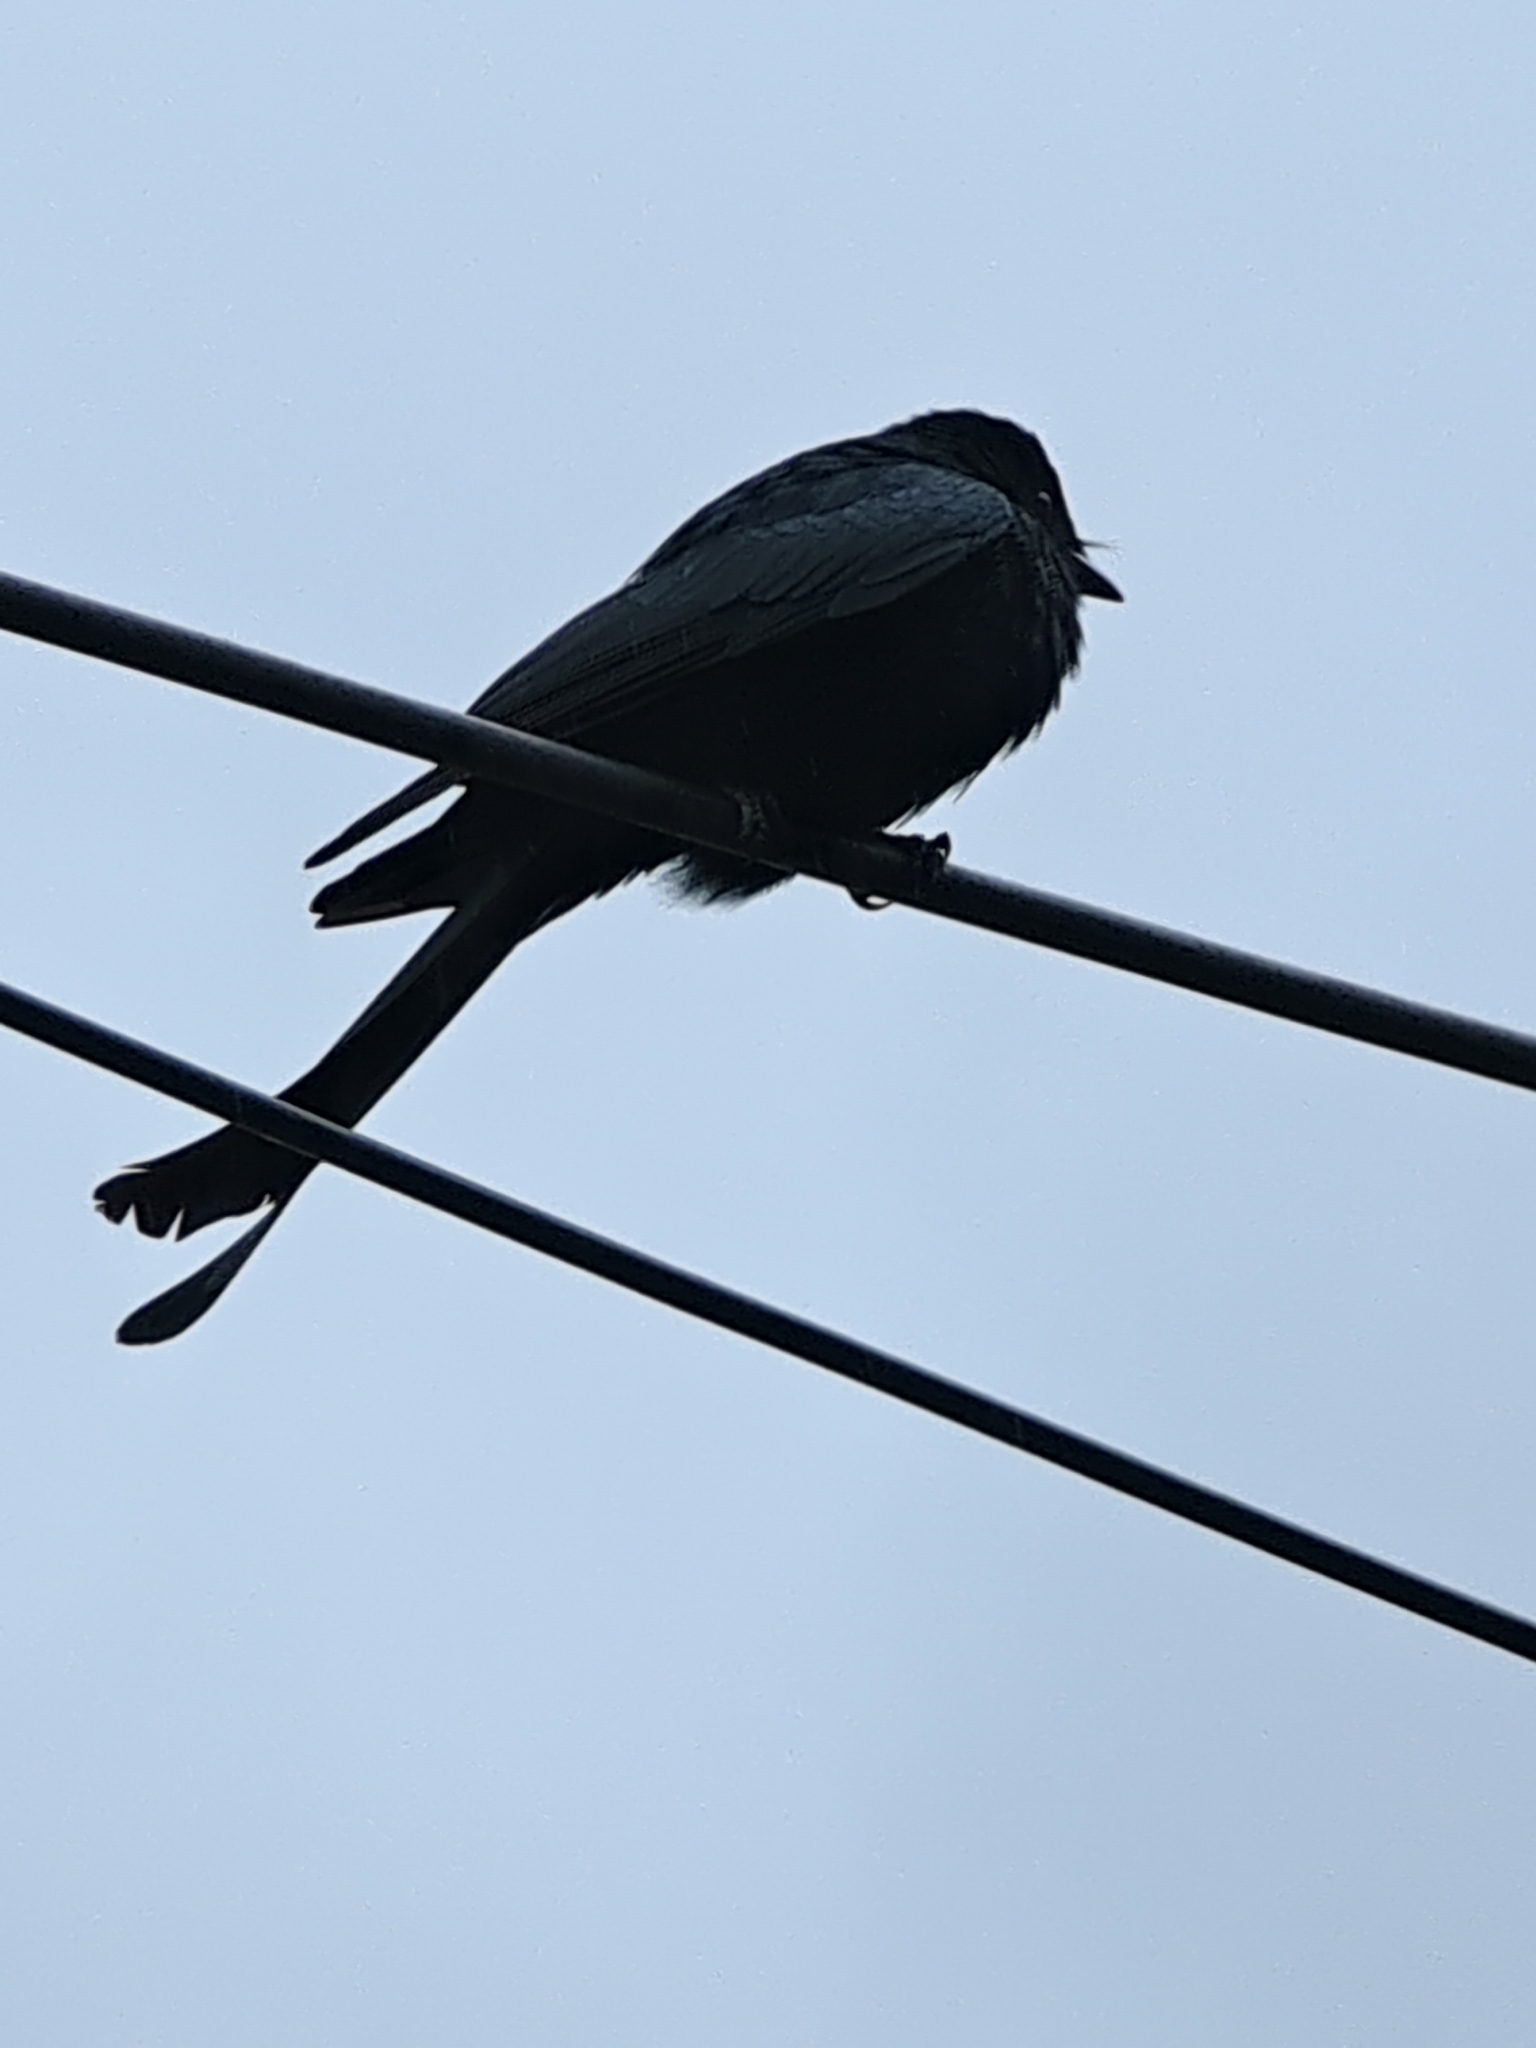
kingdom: Animalia
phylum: Chordata
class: Aves
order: Passeriformes
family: Dicruridae
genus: Dicrurus
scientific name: Dicrurus macrocercus
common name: Black drongo
